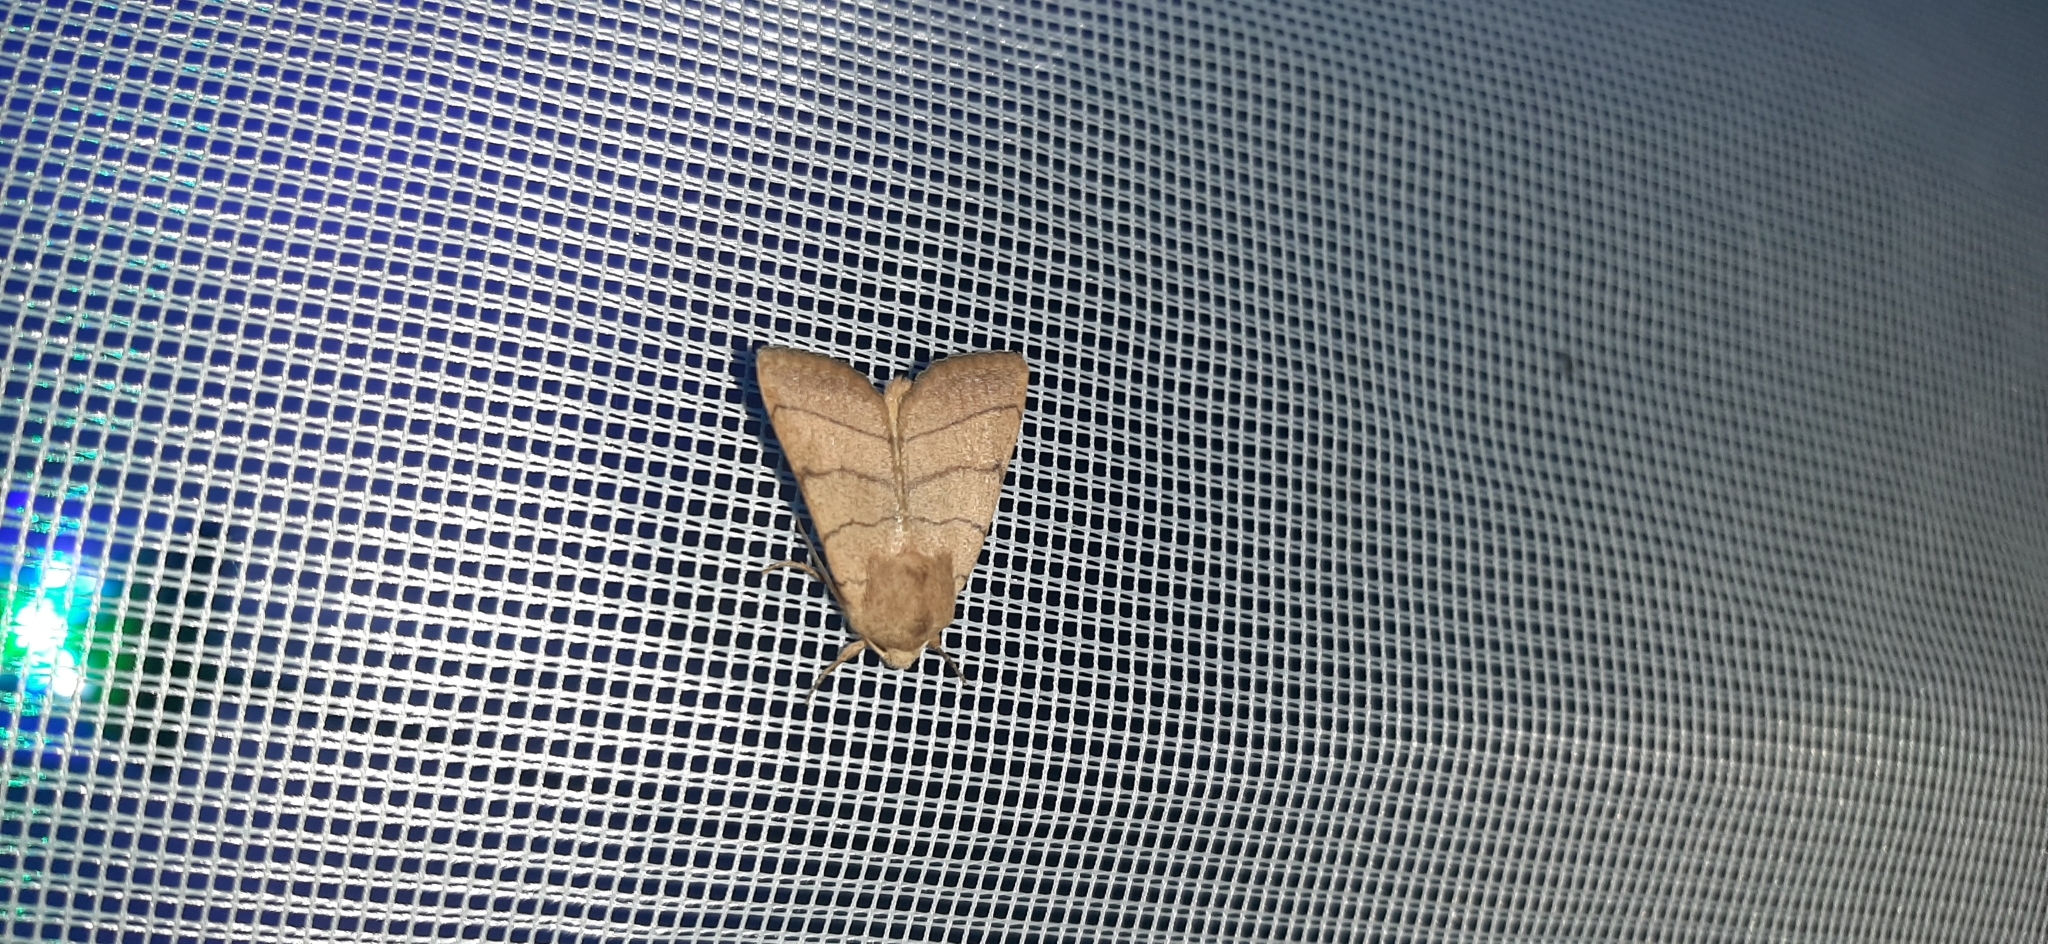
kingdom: Animalia
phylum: Arthropoda
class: Insecta
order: Lepidoptera
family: Noctuidae
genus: Charanyca
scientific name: Charanyca trigrammica
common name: Treble lines
